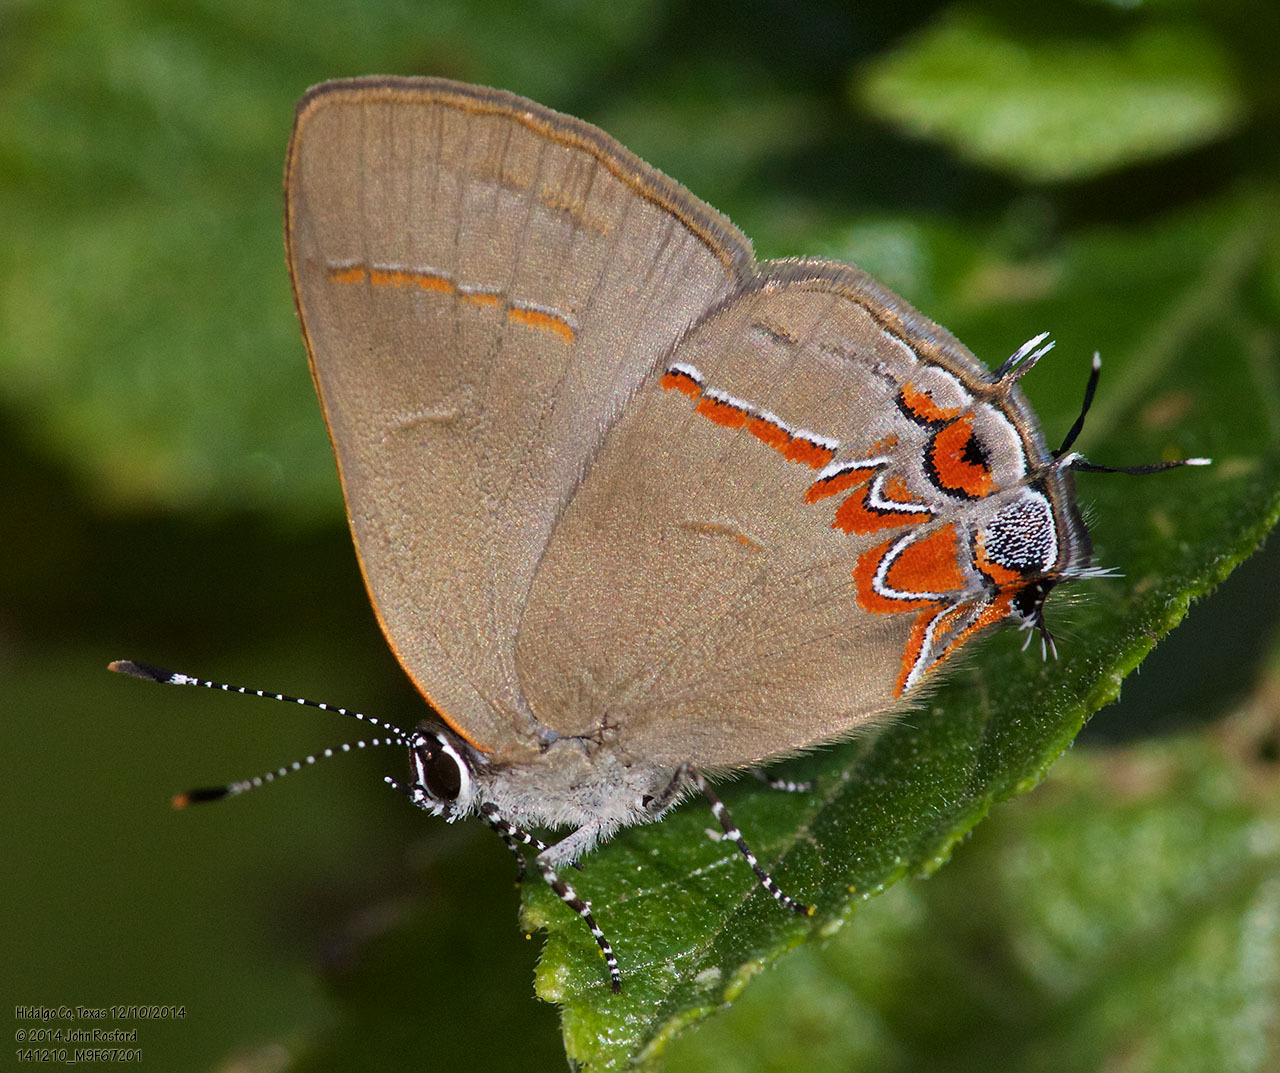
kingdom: Animalia
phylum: Arthropoda
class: Insecta
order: Lepidoptera
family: Lycaenidae
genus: Calycopis
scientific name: Calycopis isobeon
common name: Dusky-blue groundstreak
